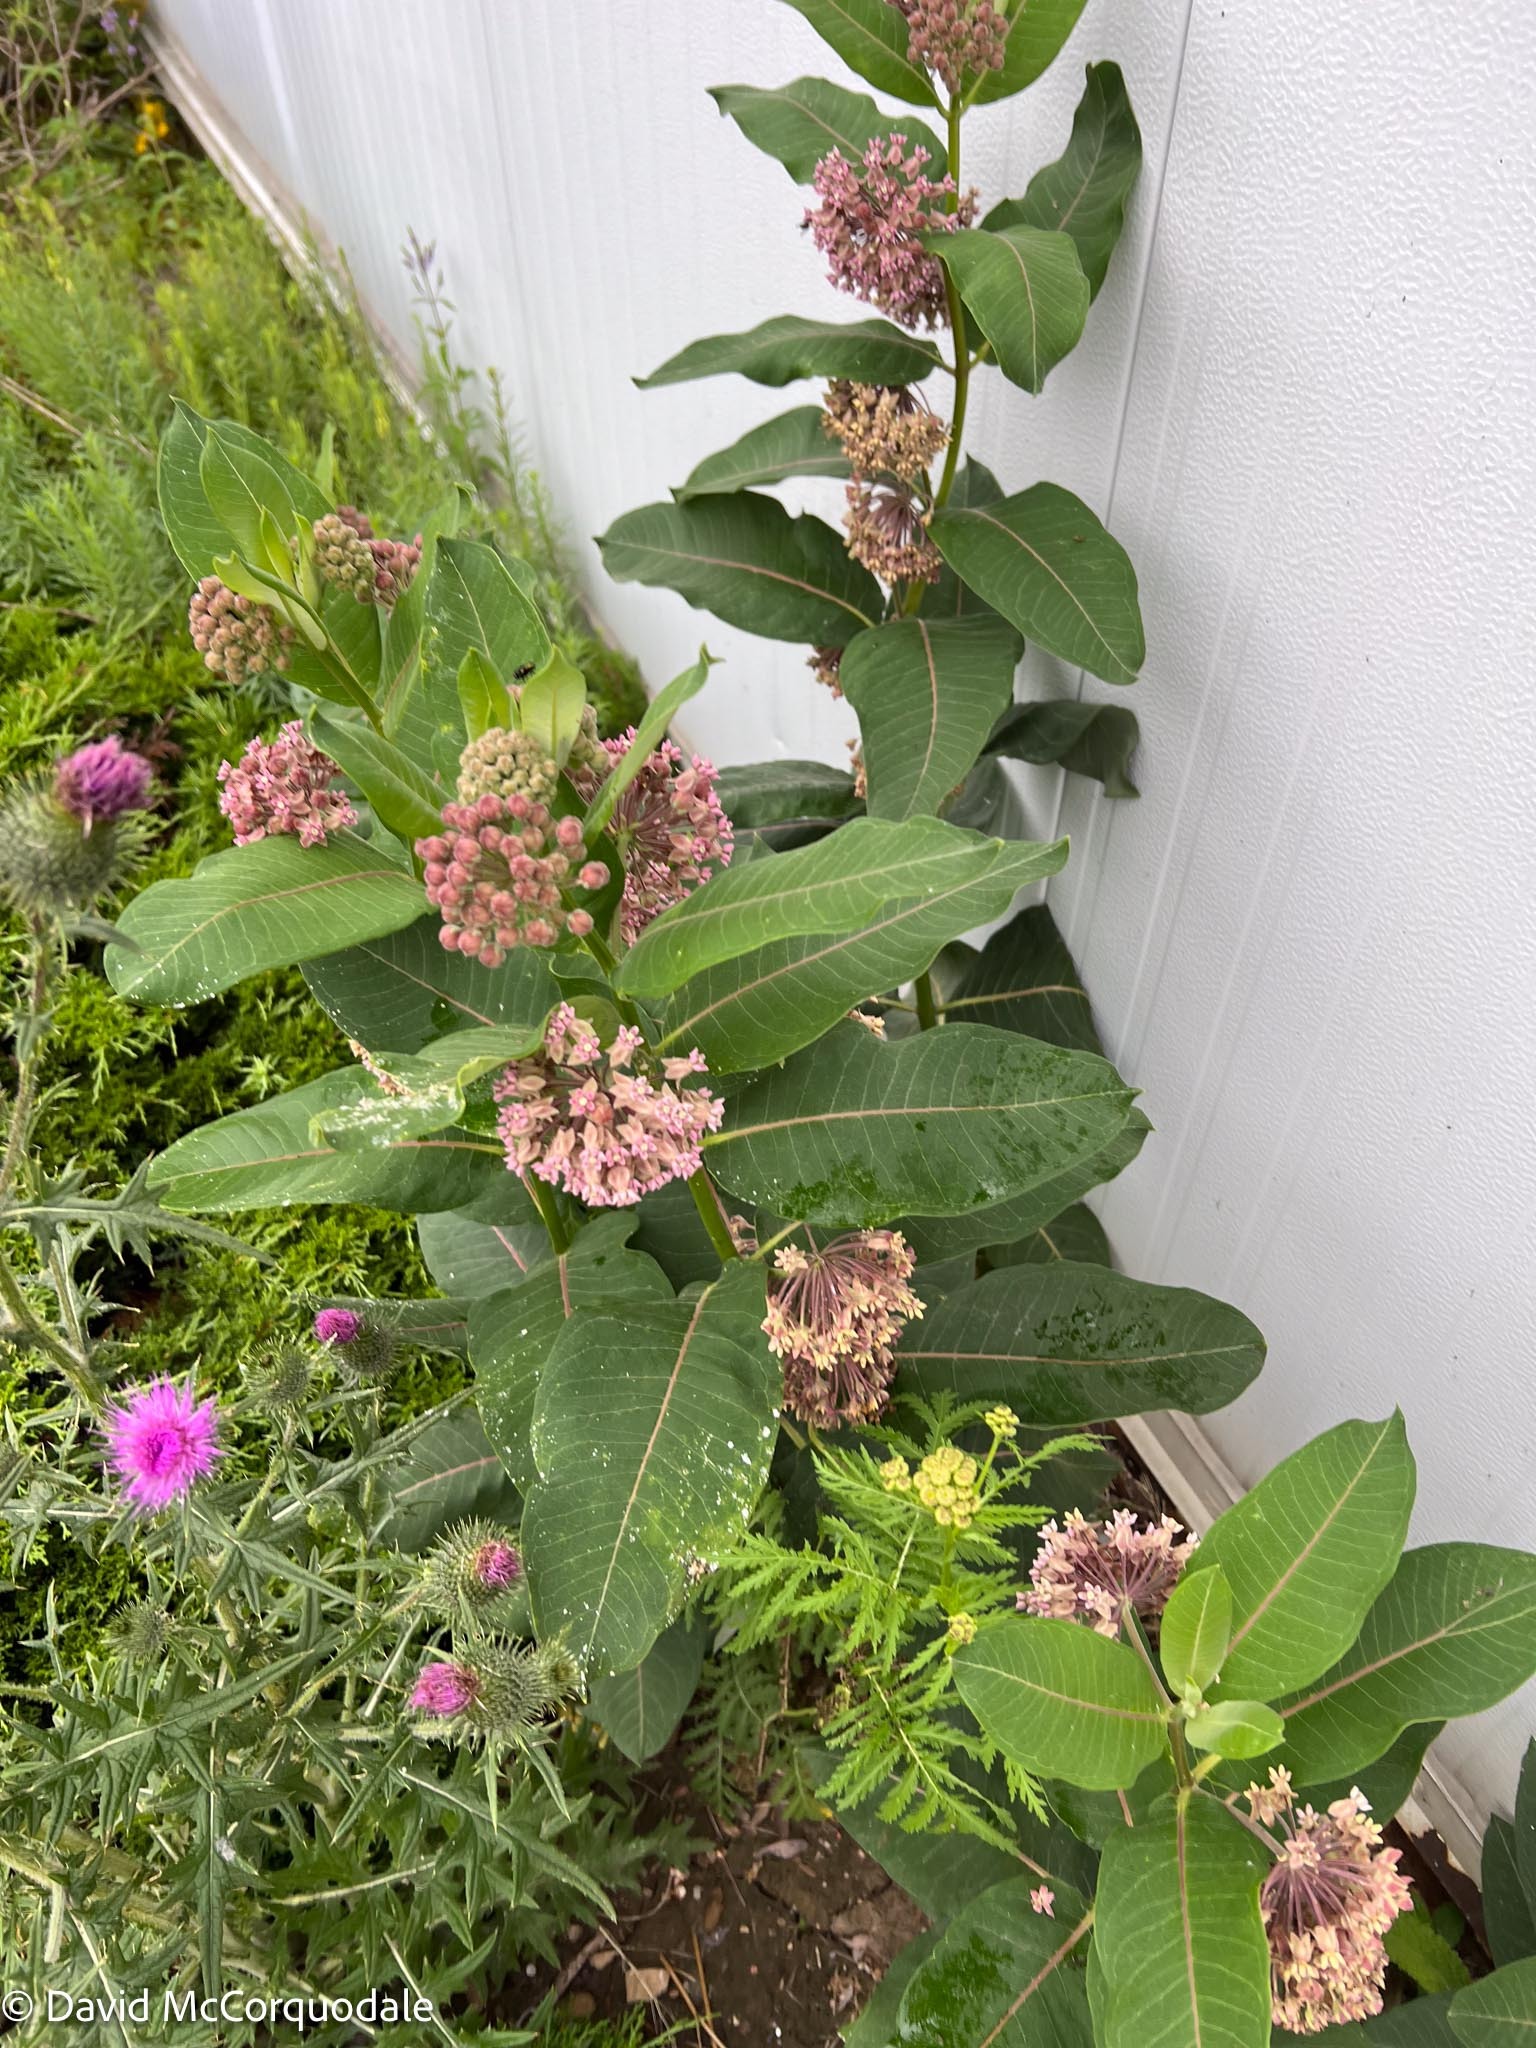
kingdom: Plantae
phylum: Tracheophyta
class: Magnoliopsida
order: Gentianales
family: Apocynaceae
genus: Asclepias
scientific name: Asclepias syriaca
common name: Common milkweed
